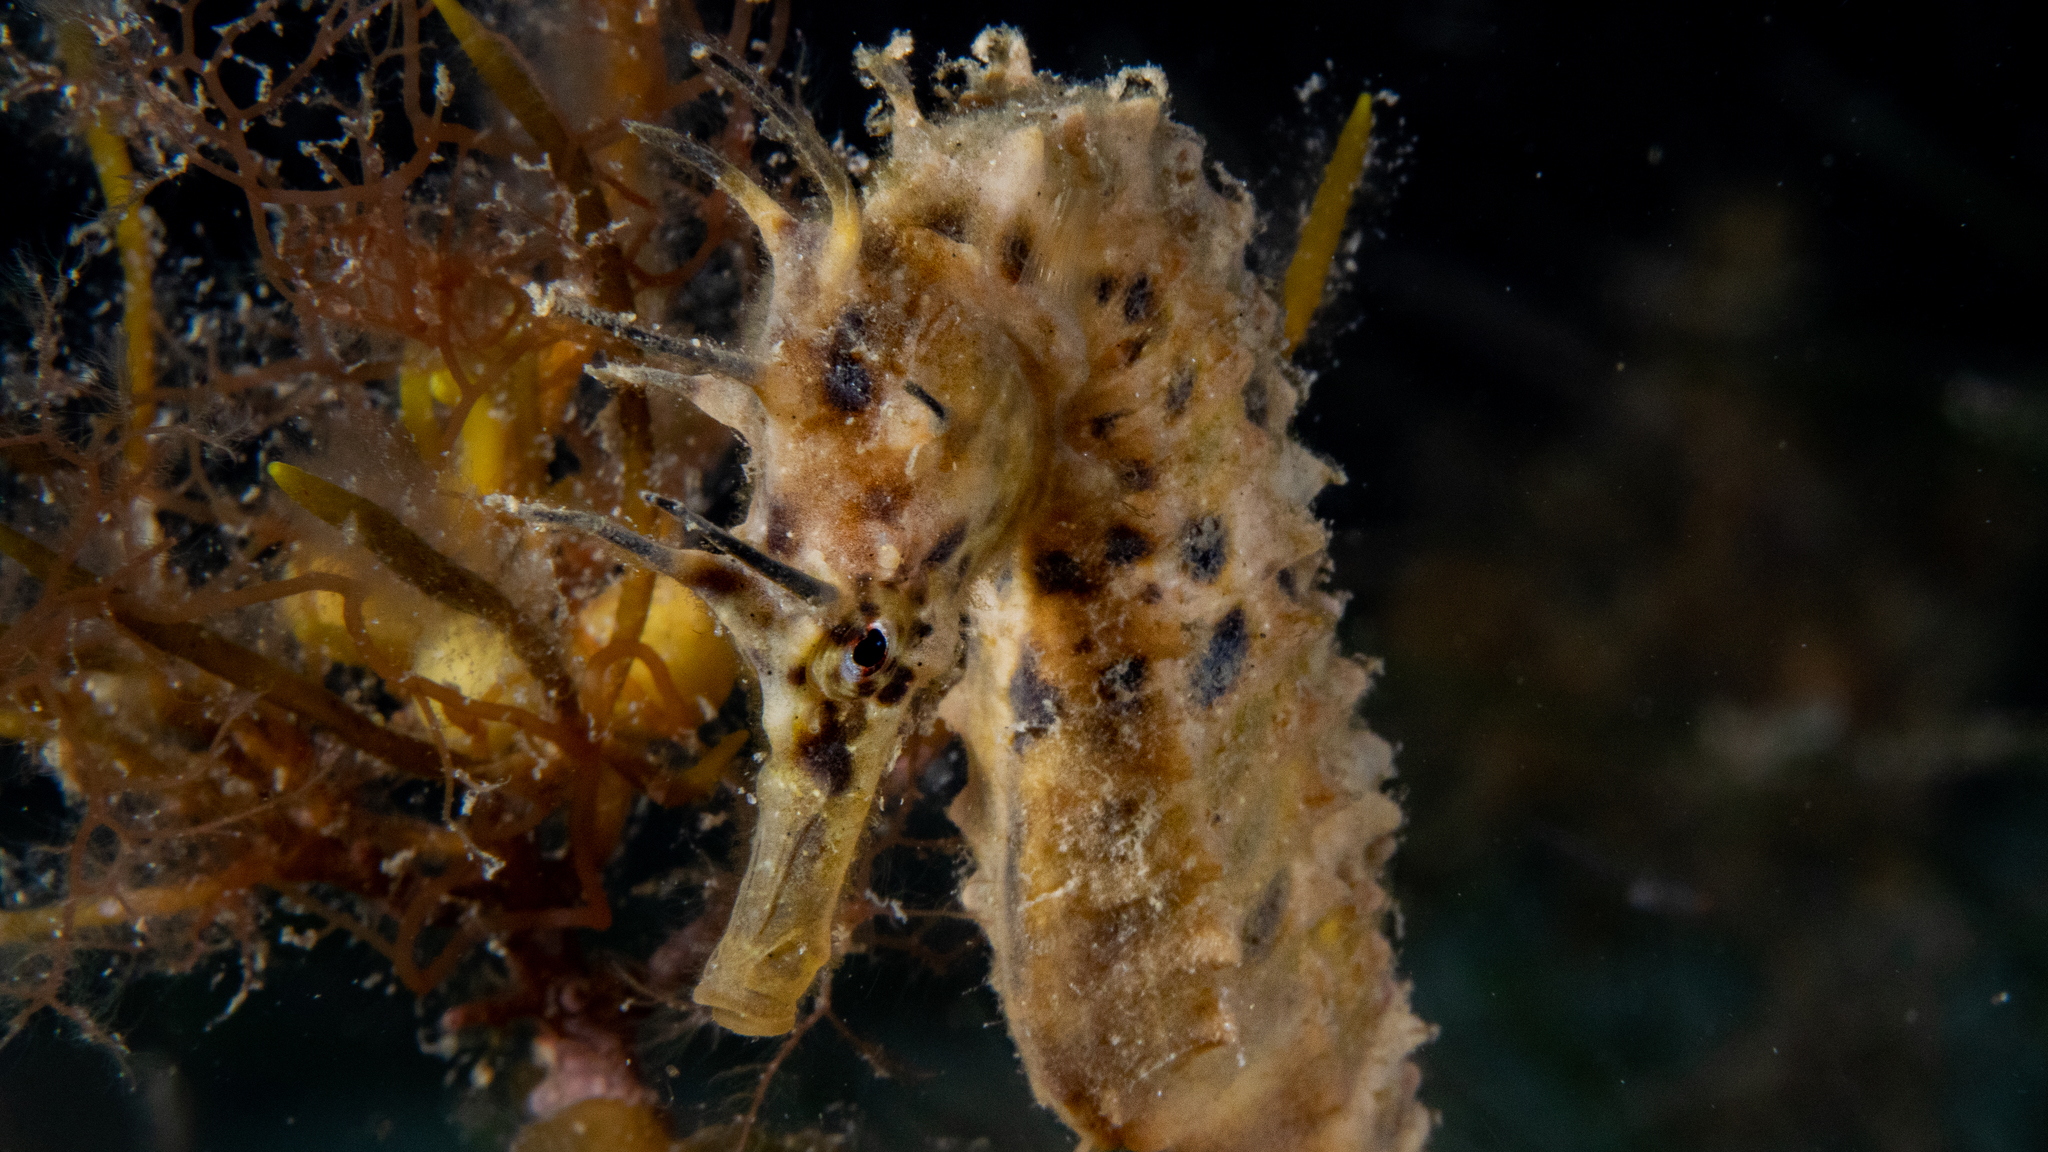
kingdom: Animalia
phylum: Chordata
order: Syngnathiformes
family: Syngnathidae
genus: Hippocampus
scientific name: Hippocampus abdominalis
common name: Big-belly seahorse
